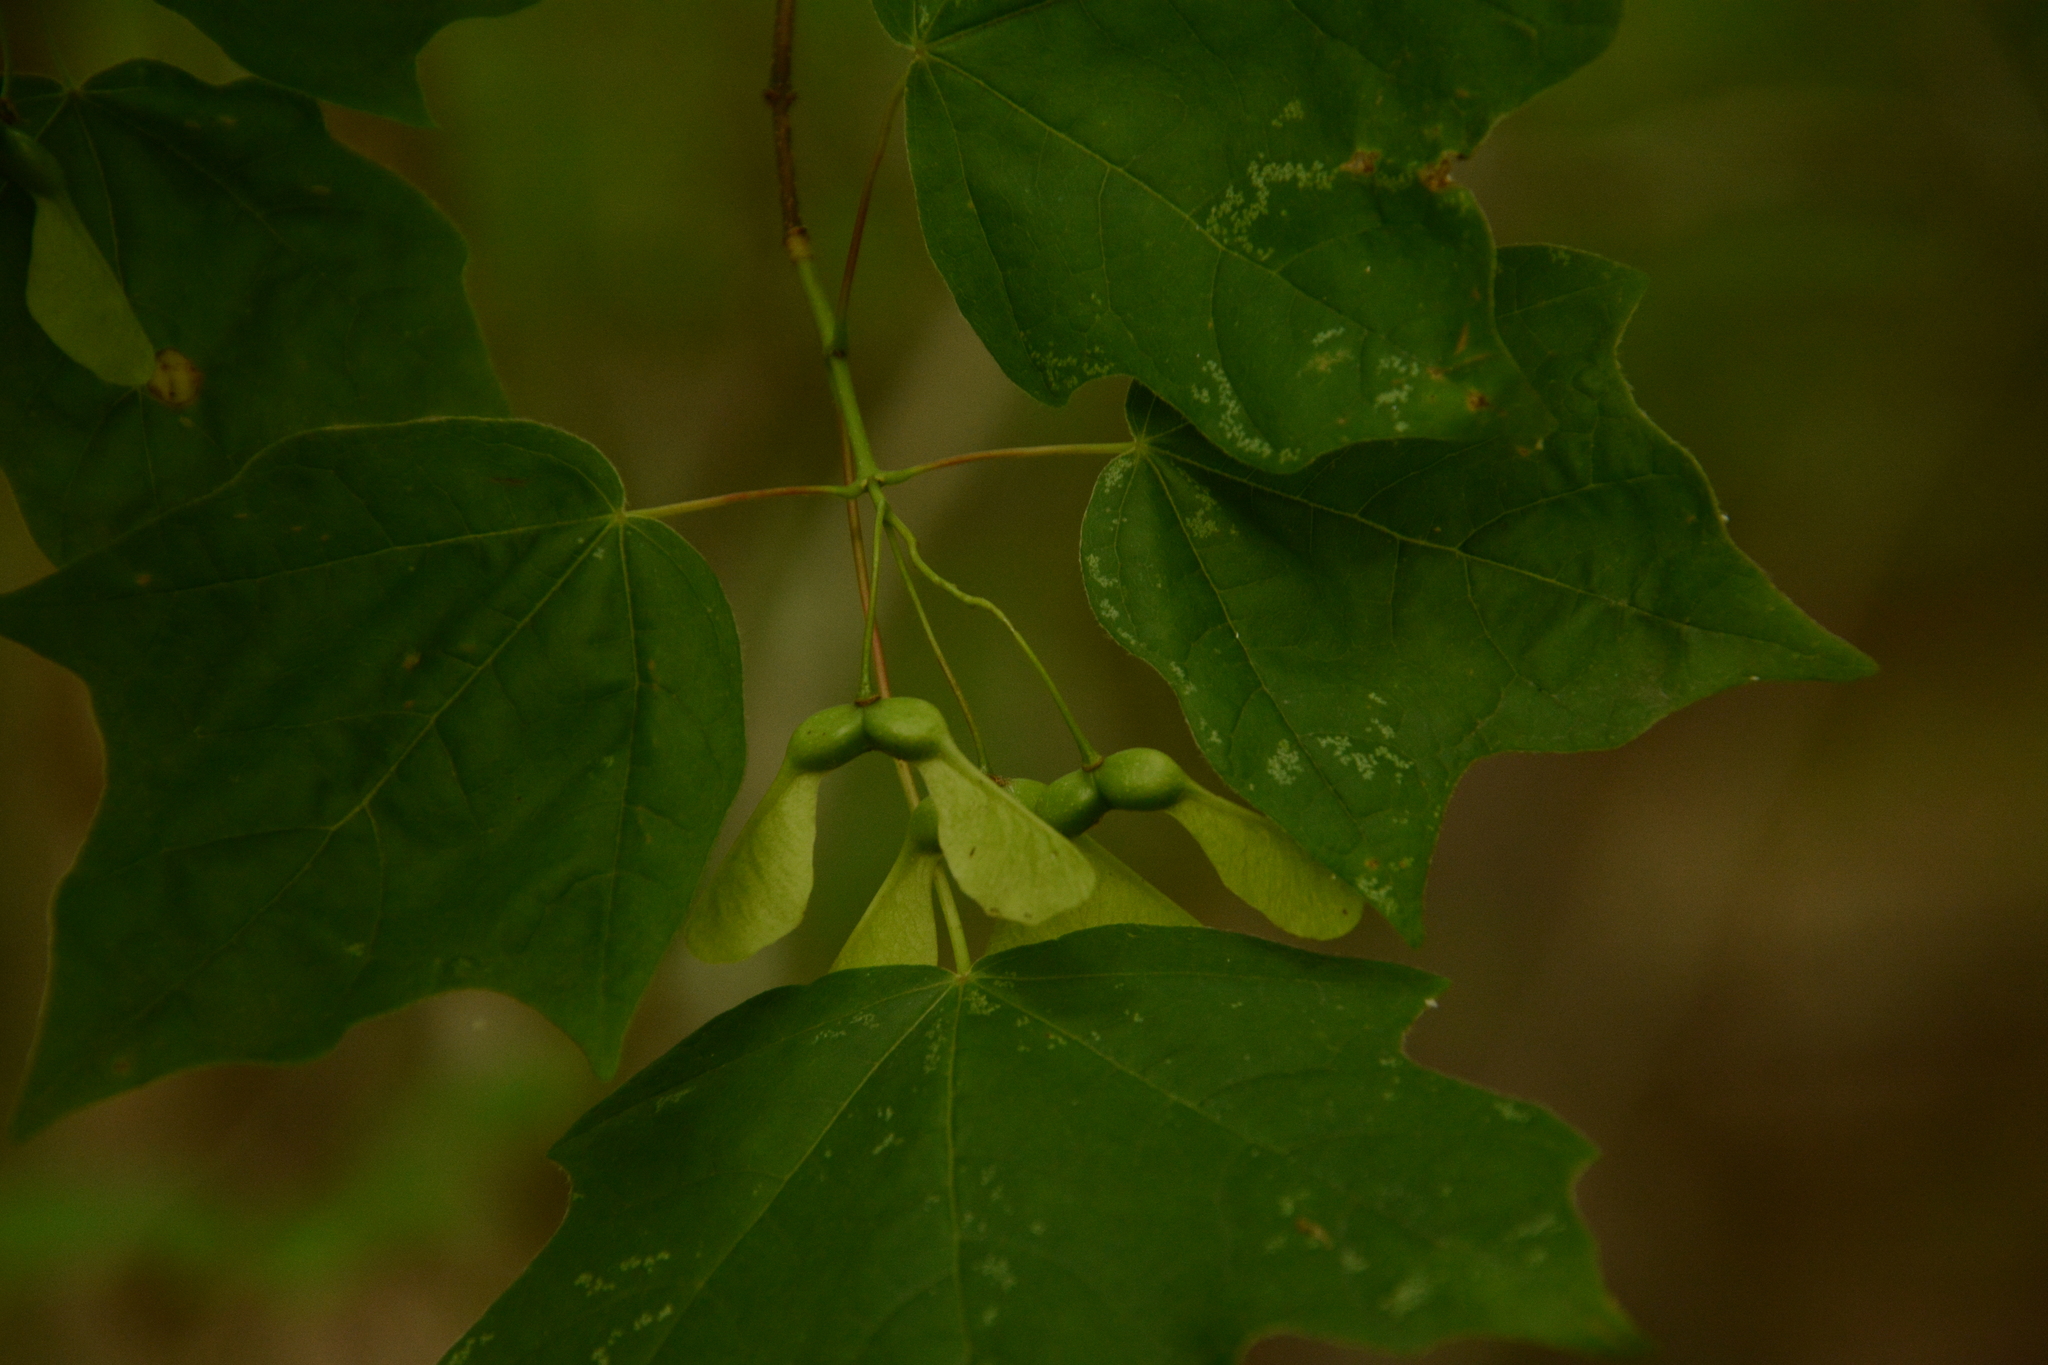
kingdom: Plantae
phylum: Tracheophyta
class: Magnoliopsida
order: Sapindales
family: Sapindaceae
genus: Acer
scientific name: Acer leucoderme
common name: Chalk maple
